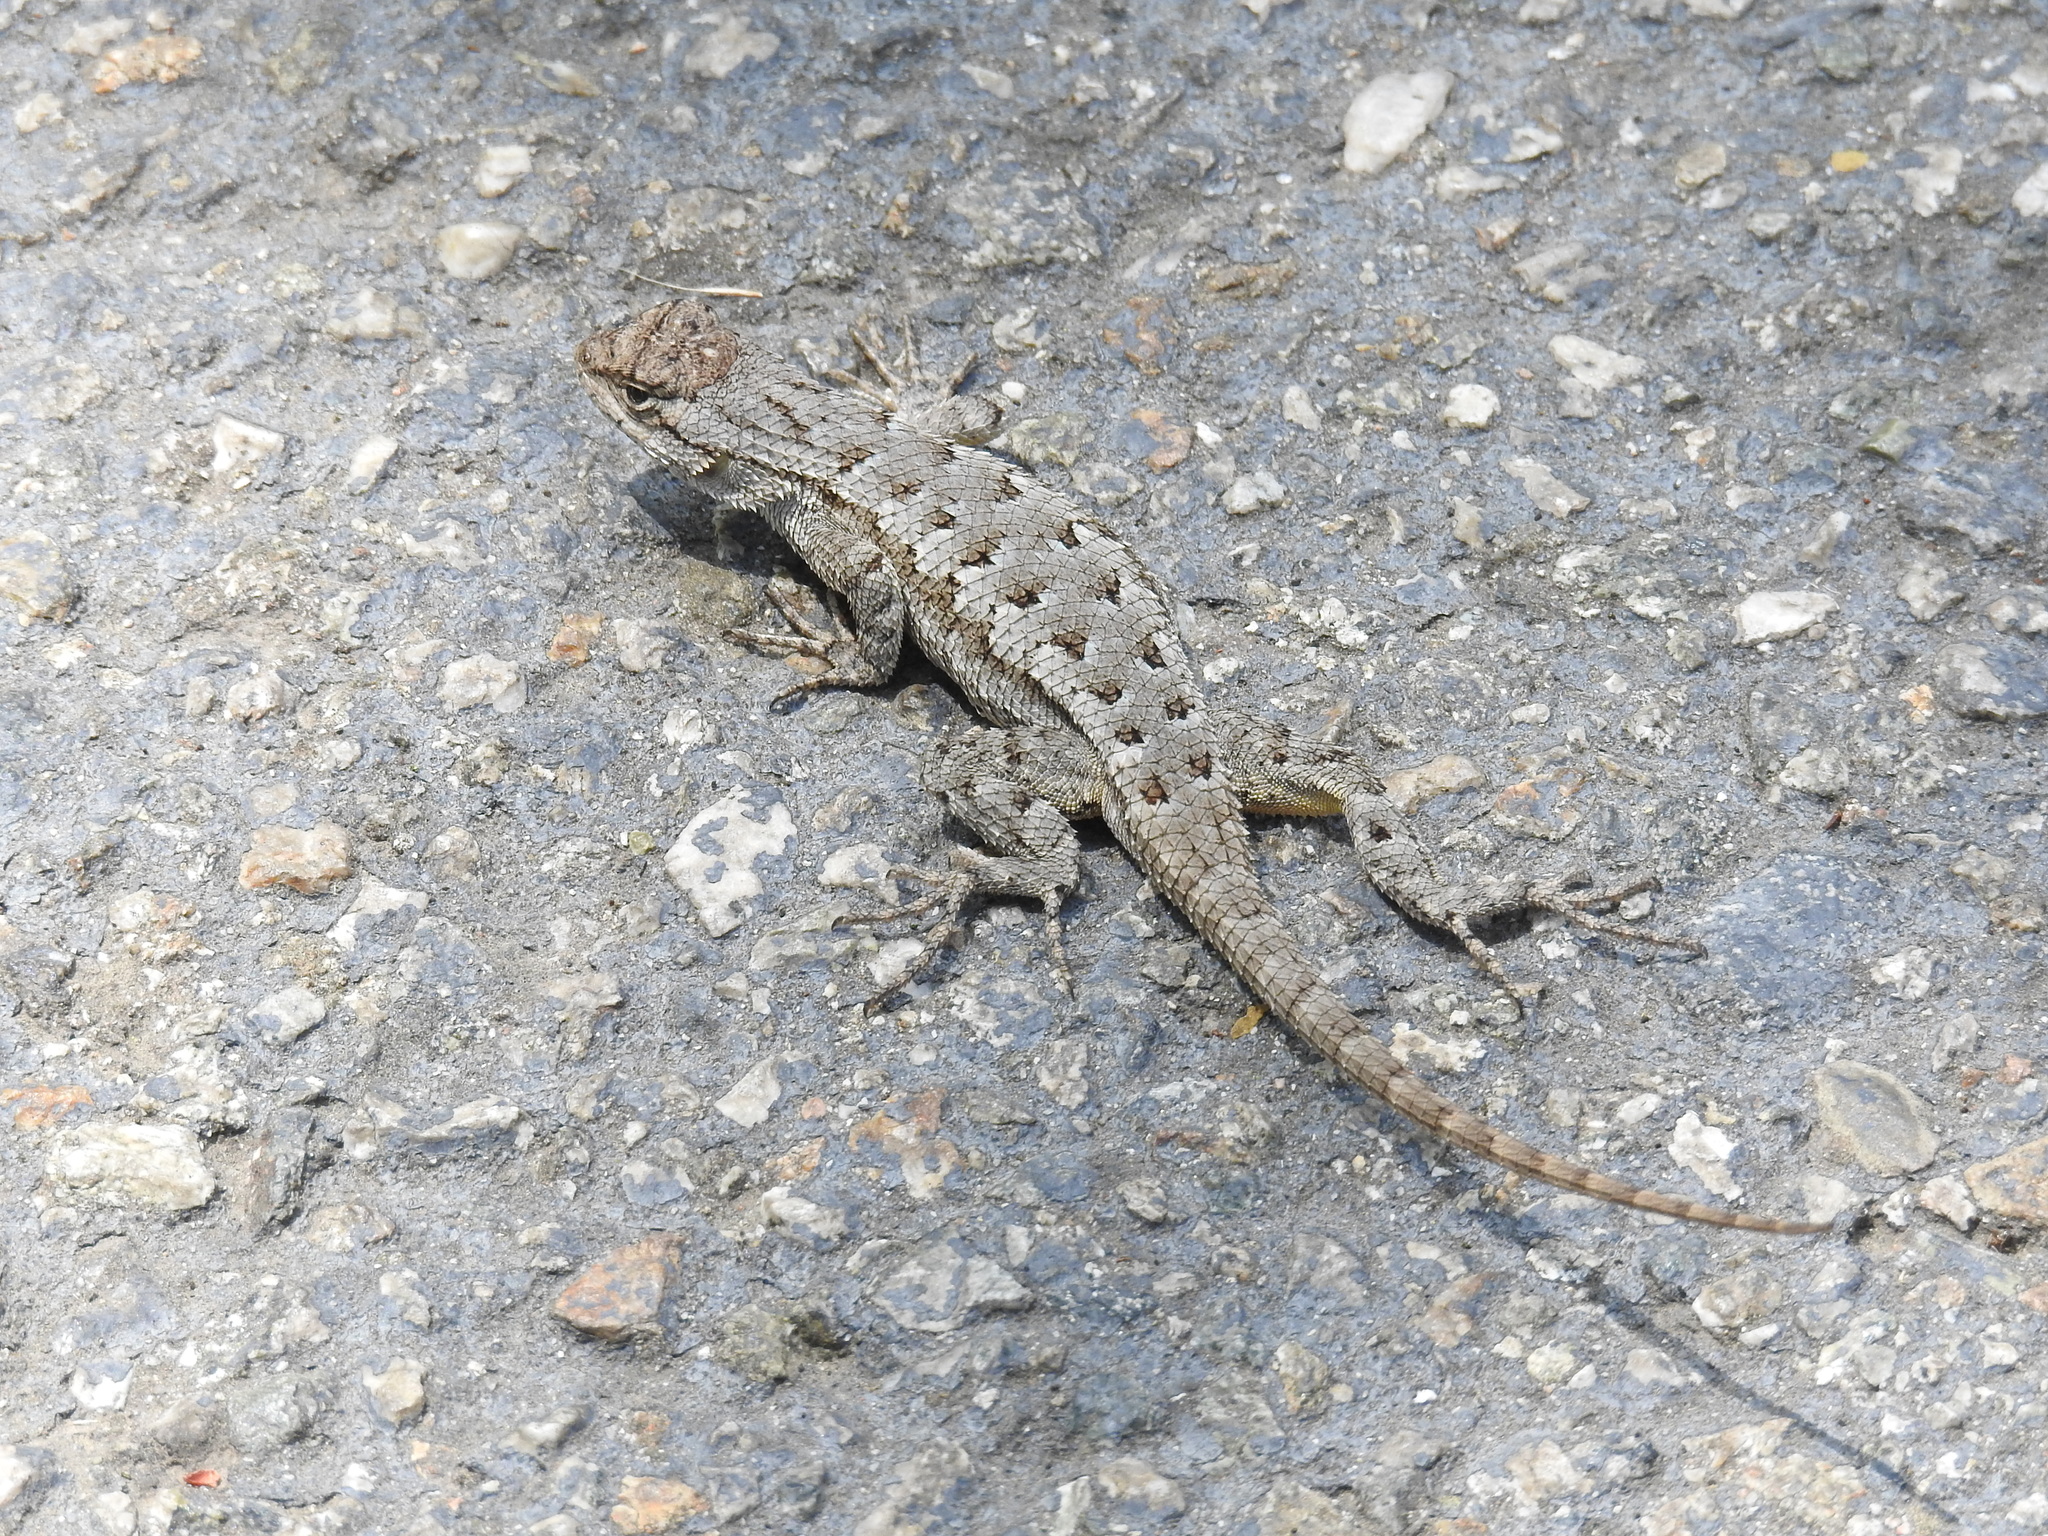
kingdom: Animalia
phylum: Chordata
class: Squamata
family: Phrynosomatidae
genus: Sceloporus
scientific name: Sceloporus occidentalis
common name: Western fence lizard
